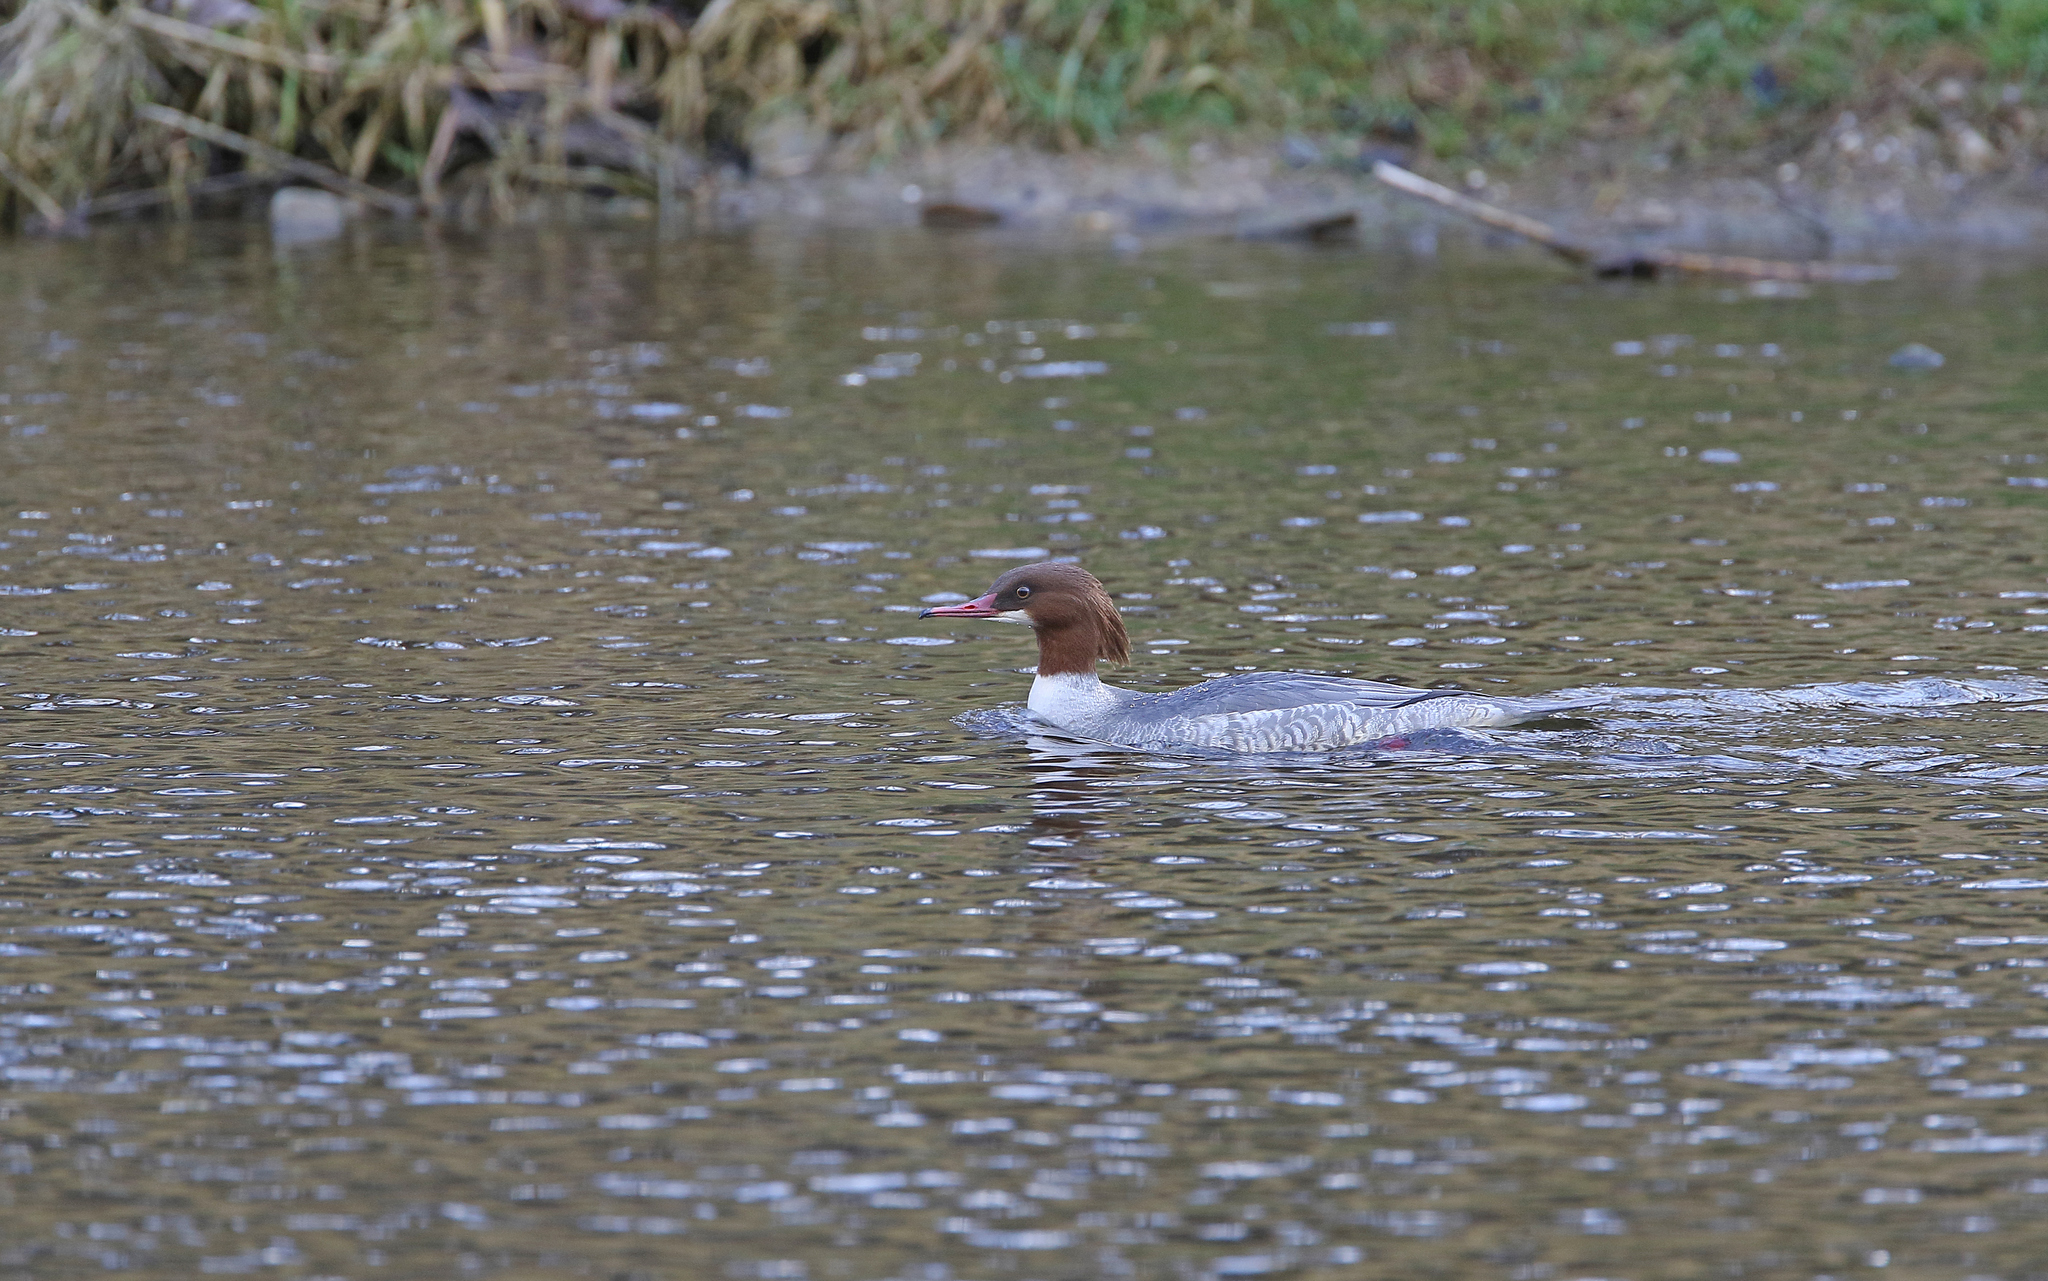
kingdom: Animalia
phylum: Chordata
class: Aves
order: Anseriformes
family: Anatidae
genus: Mergus
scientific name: Mergus merganser
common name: Common merganser
